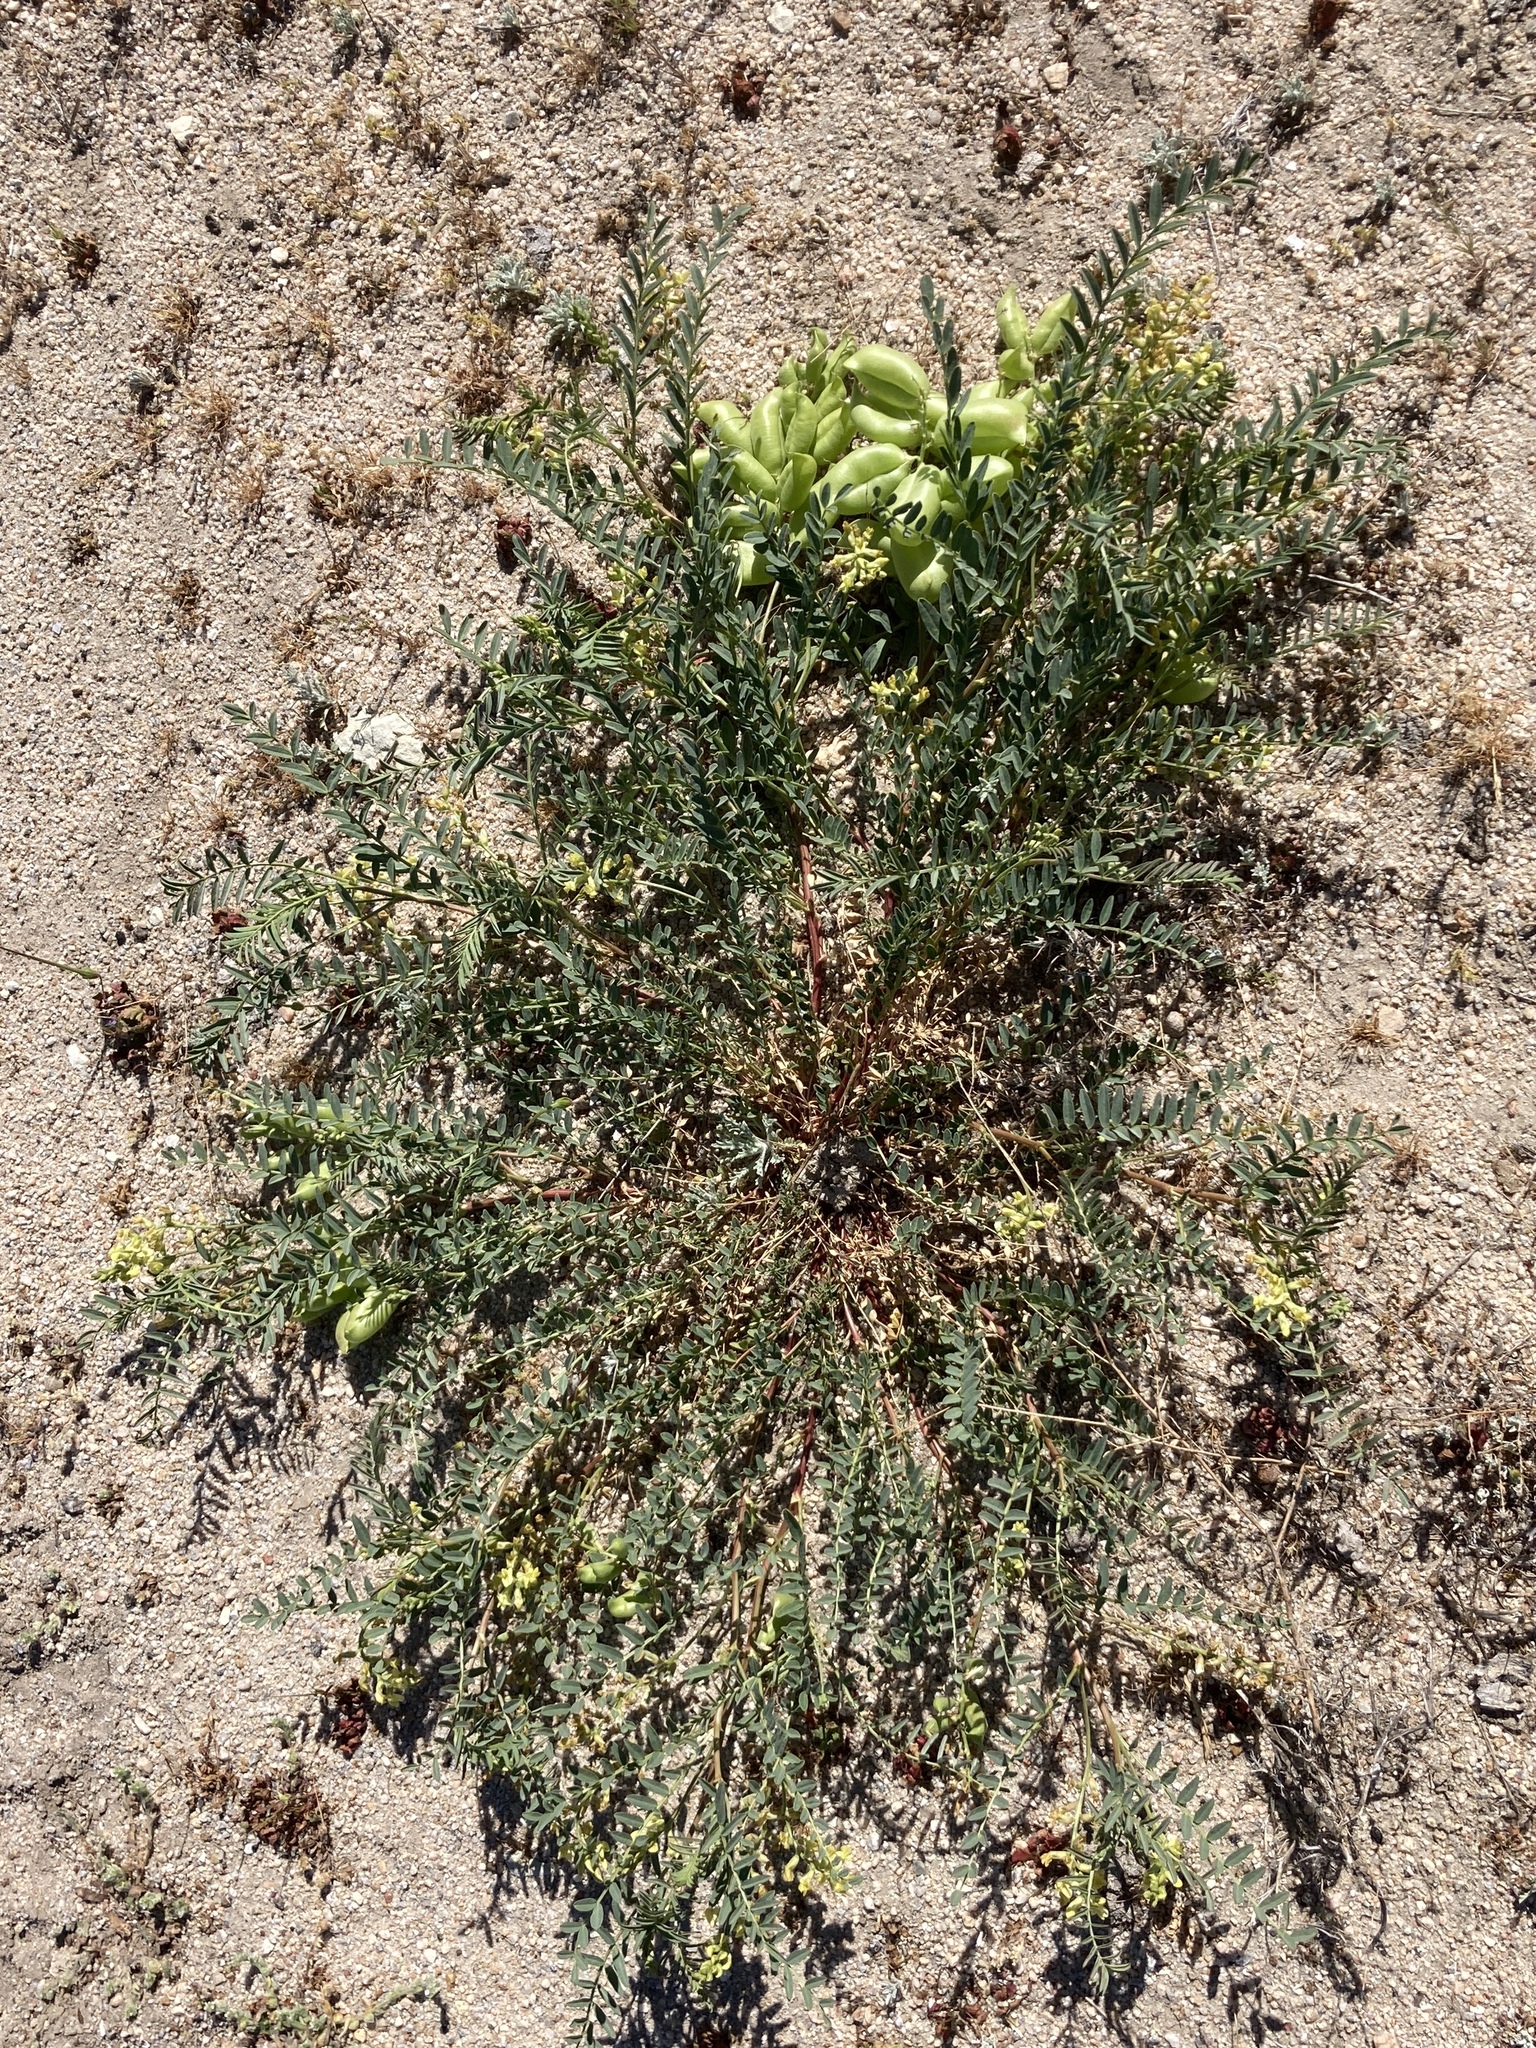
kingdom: Plantae
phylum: Tracheophyta
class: Magnoliopsida
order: Fabales
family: Fabaceae
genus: Astragalus
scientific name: Astragalus douglasii
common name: Jacumba milkvetch
